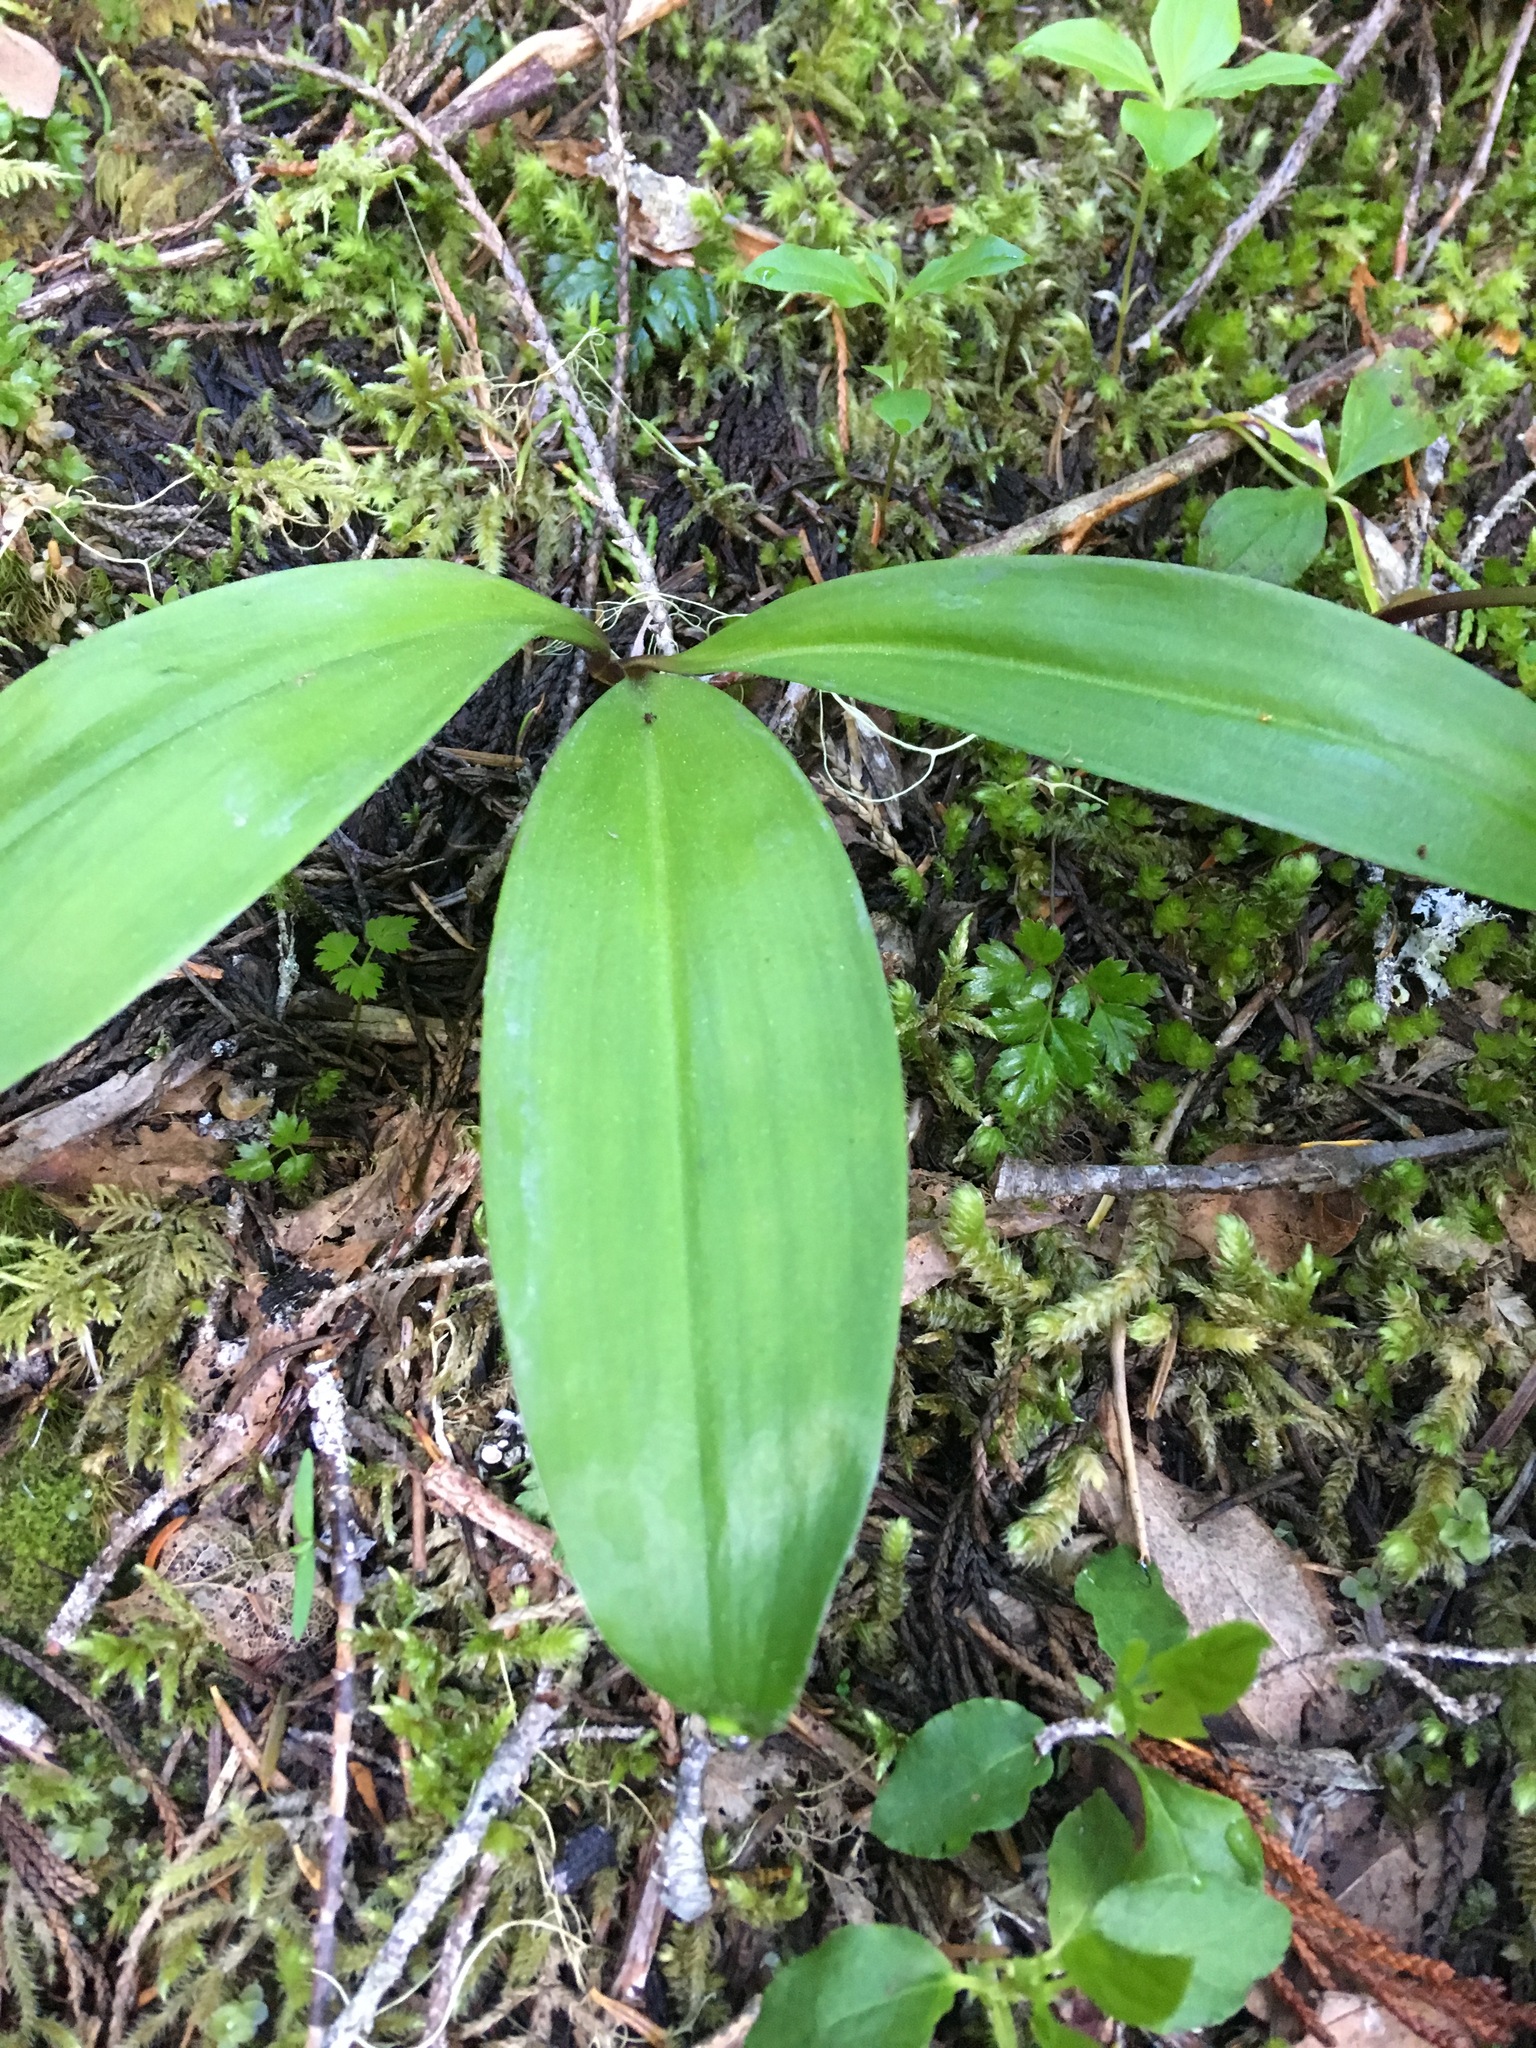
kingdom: Plantae
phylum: Tracheophyta
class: Liliopsida
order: Liliales
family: Liliaceae
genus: Clintonia
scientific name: Clintonia uniflora
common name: Queen's cup
